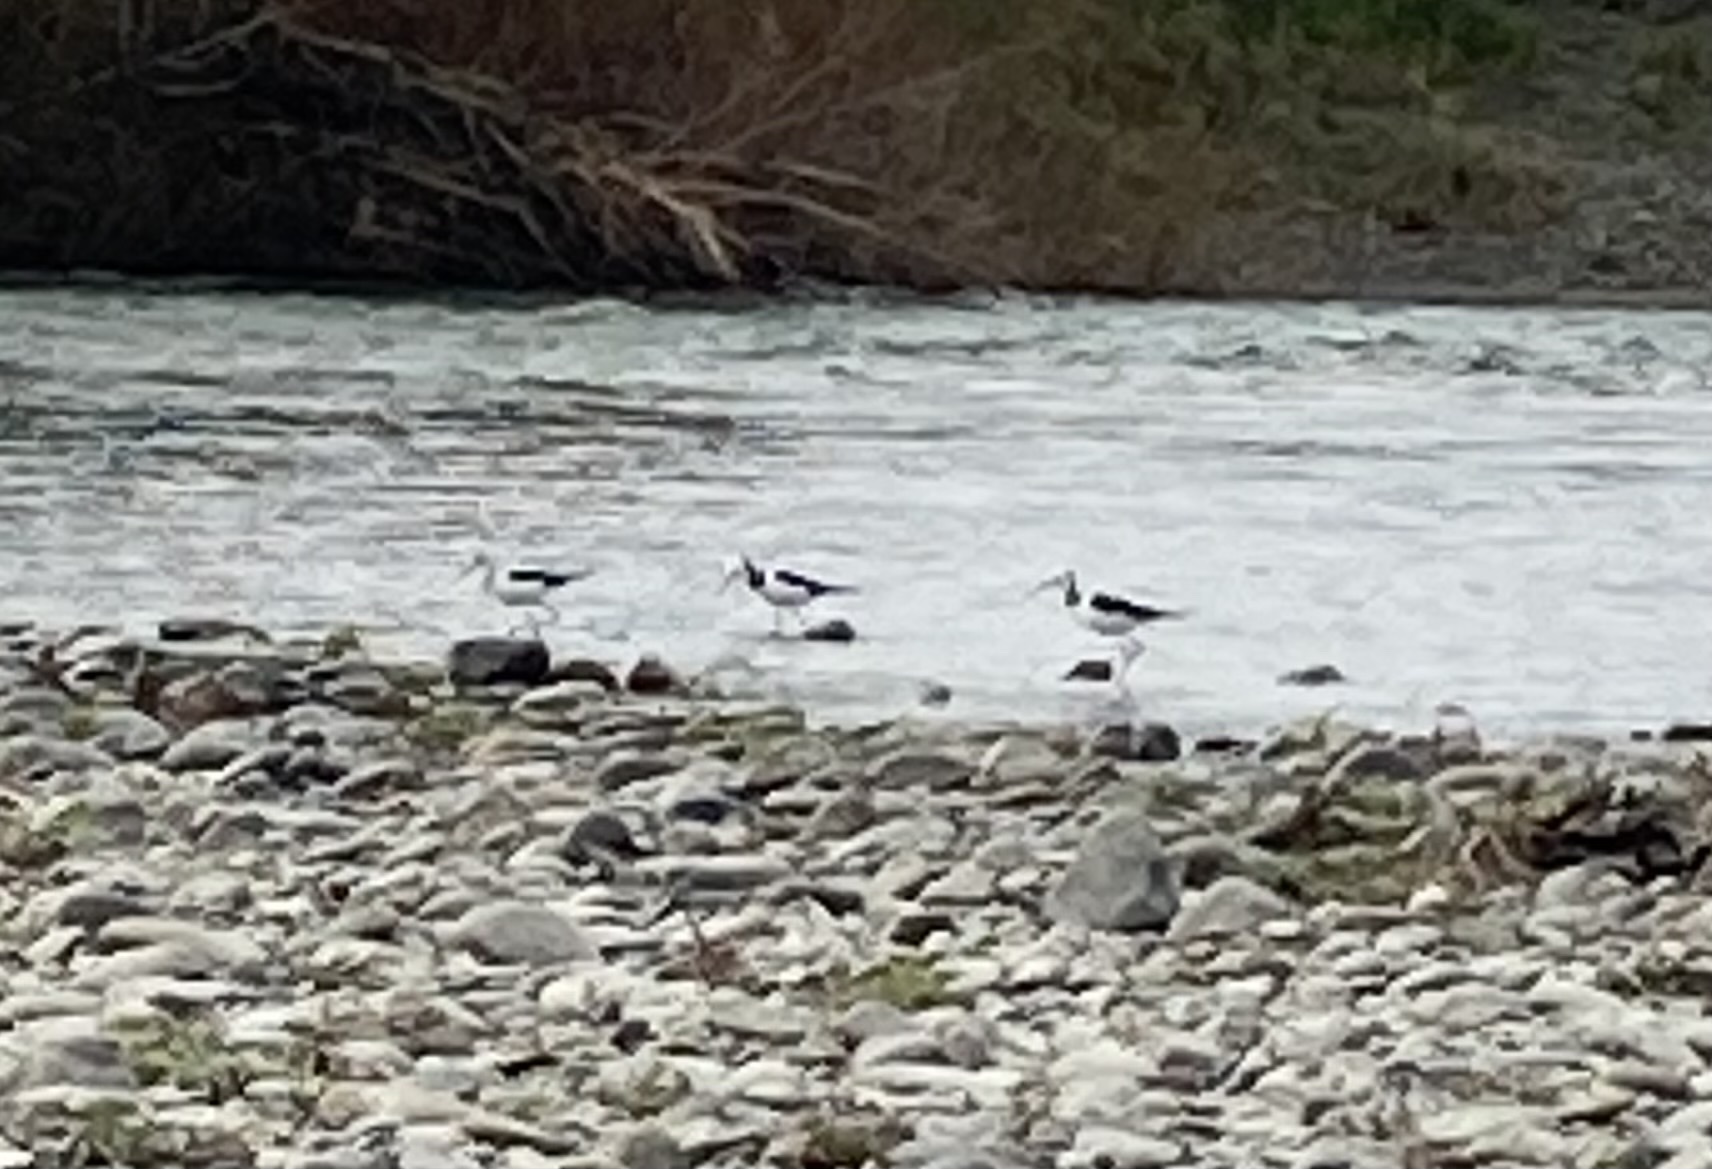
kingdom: Animalia
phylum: Chordata
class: Aves
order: Charadriiformes
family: Recurvirostridae
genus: Himantopus
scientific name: Himantopus leucocephalus
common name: White-headed stilt
